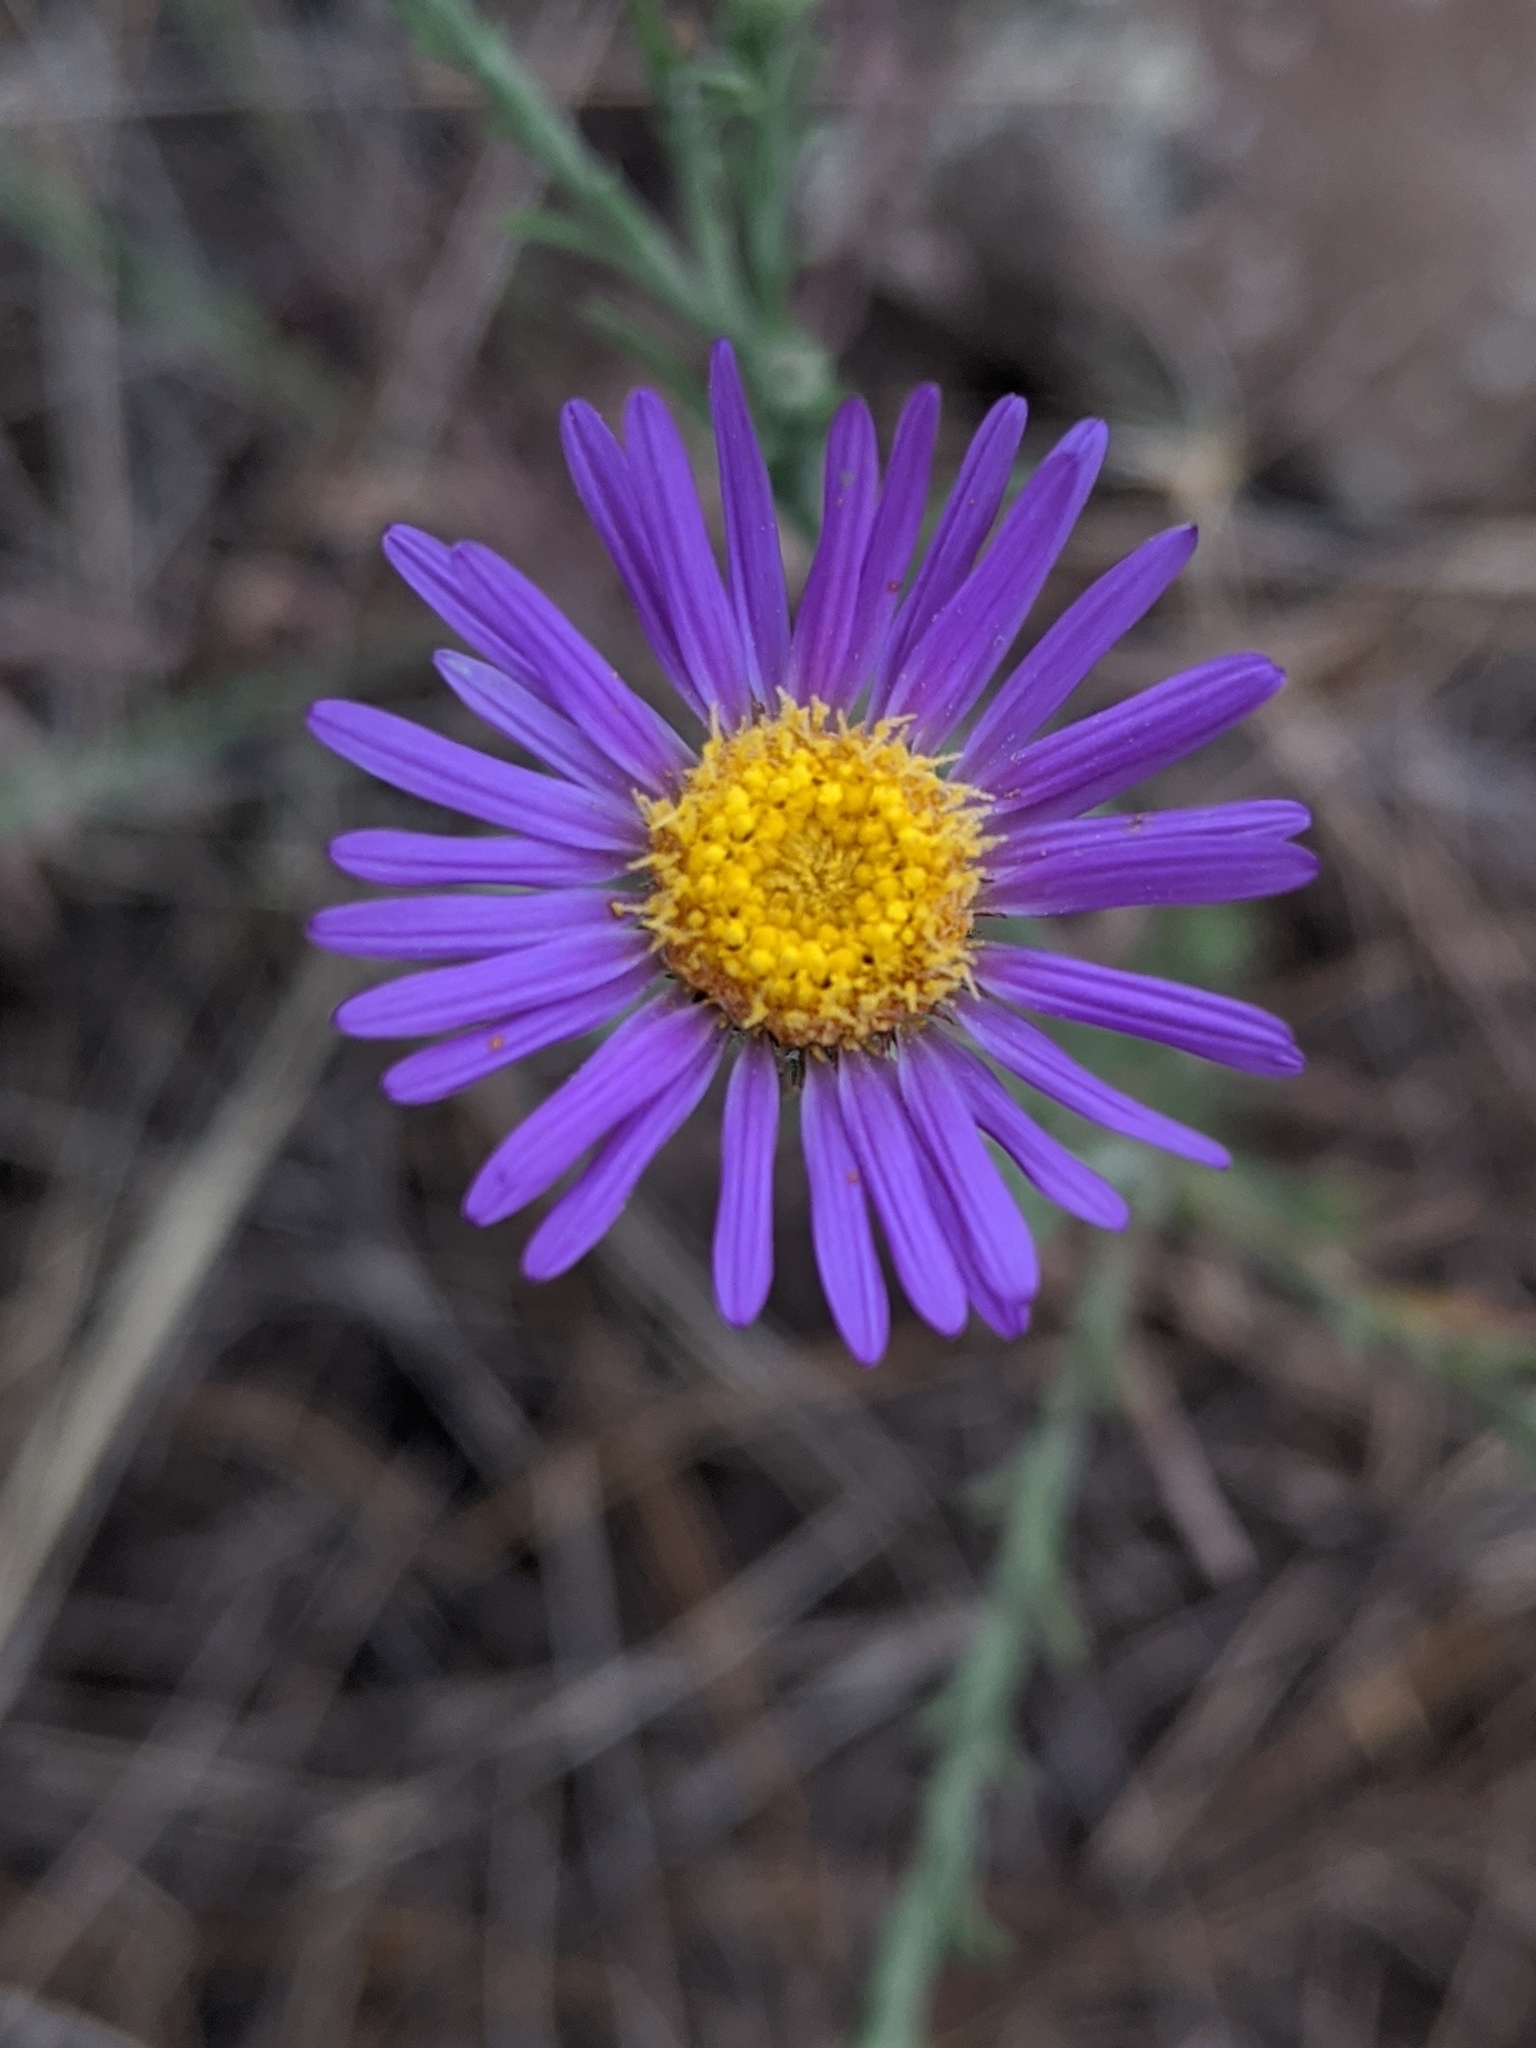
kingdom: Plantae
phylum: Tracheophyta
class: Magnoliopsida
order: Asterales
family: Asteraceae
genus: Dieteria
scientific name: Dieteria canescens
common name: Hoary-aster
